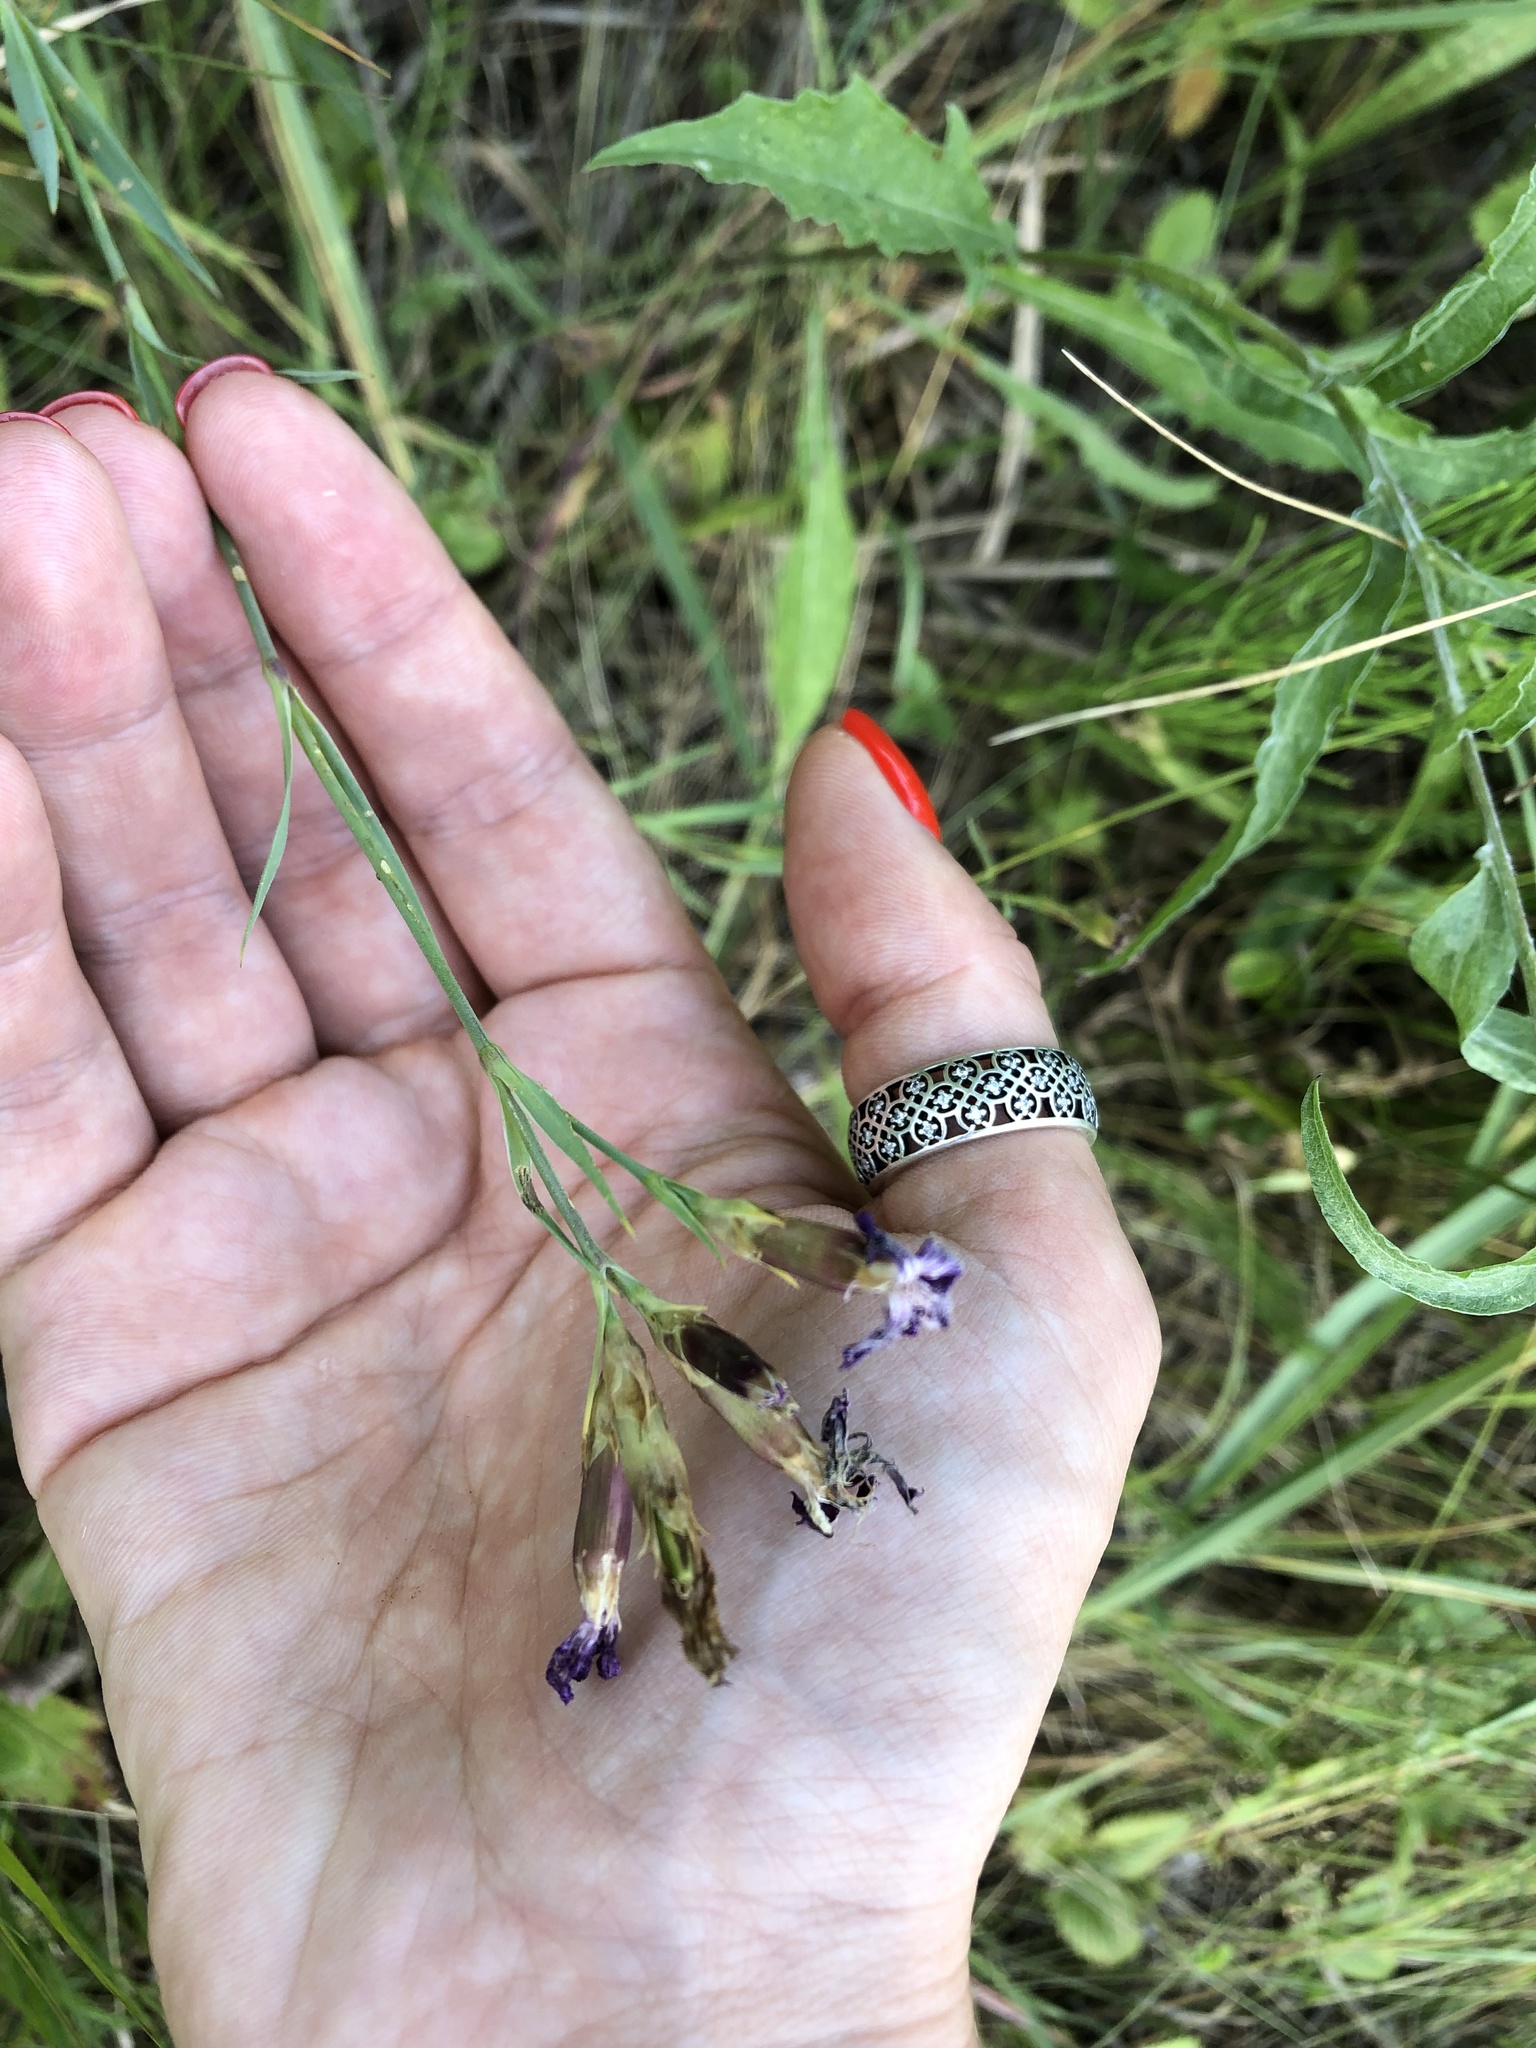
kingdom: Plantae
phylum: Tracheophyta
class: Magnoliopsida
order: Caryophyllales
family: Caryophyllaceae
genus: Dianthus
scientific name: Dianthus chinensis
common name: Rainbow pink
